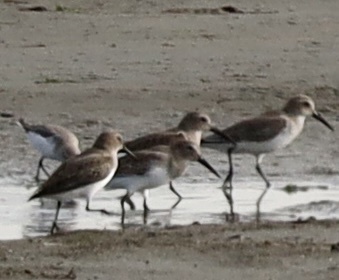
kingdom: Animalia
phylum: Chordata
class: Aves
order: Charadriiformes
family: Scolopacidae
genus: Calidris
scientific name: Calidris alpina
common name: Dunlin
